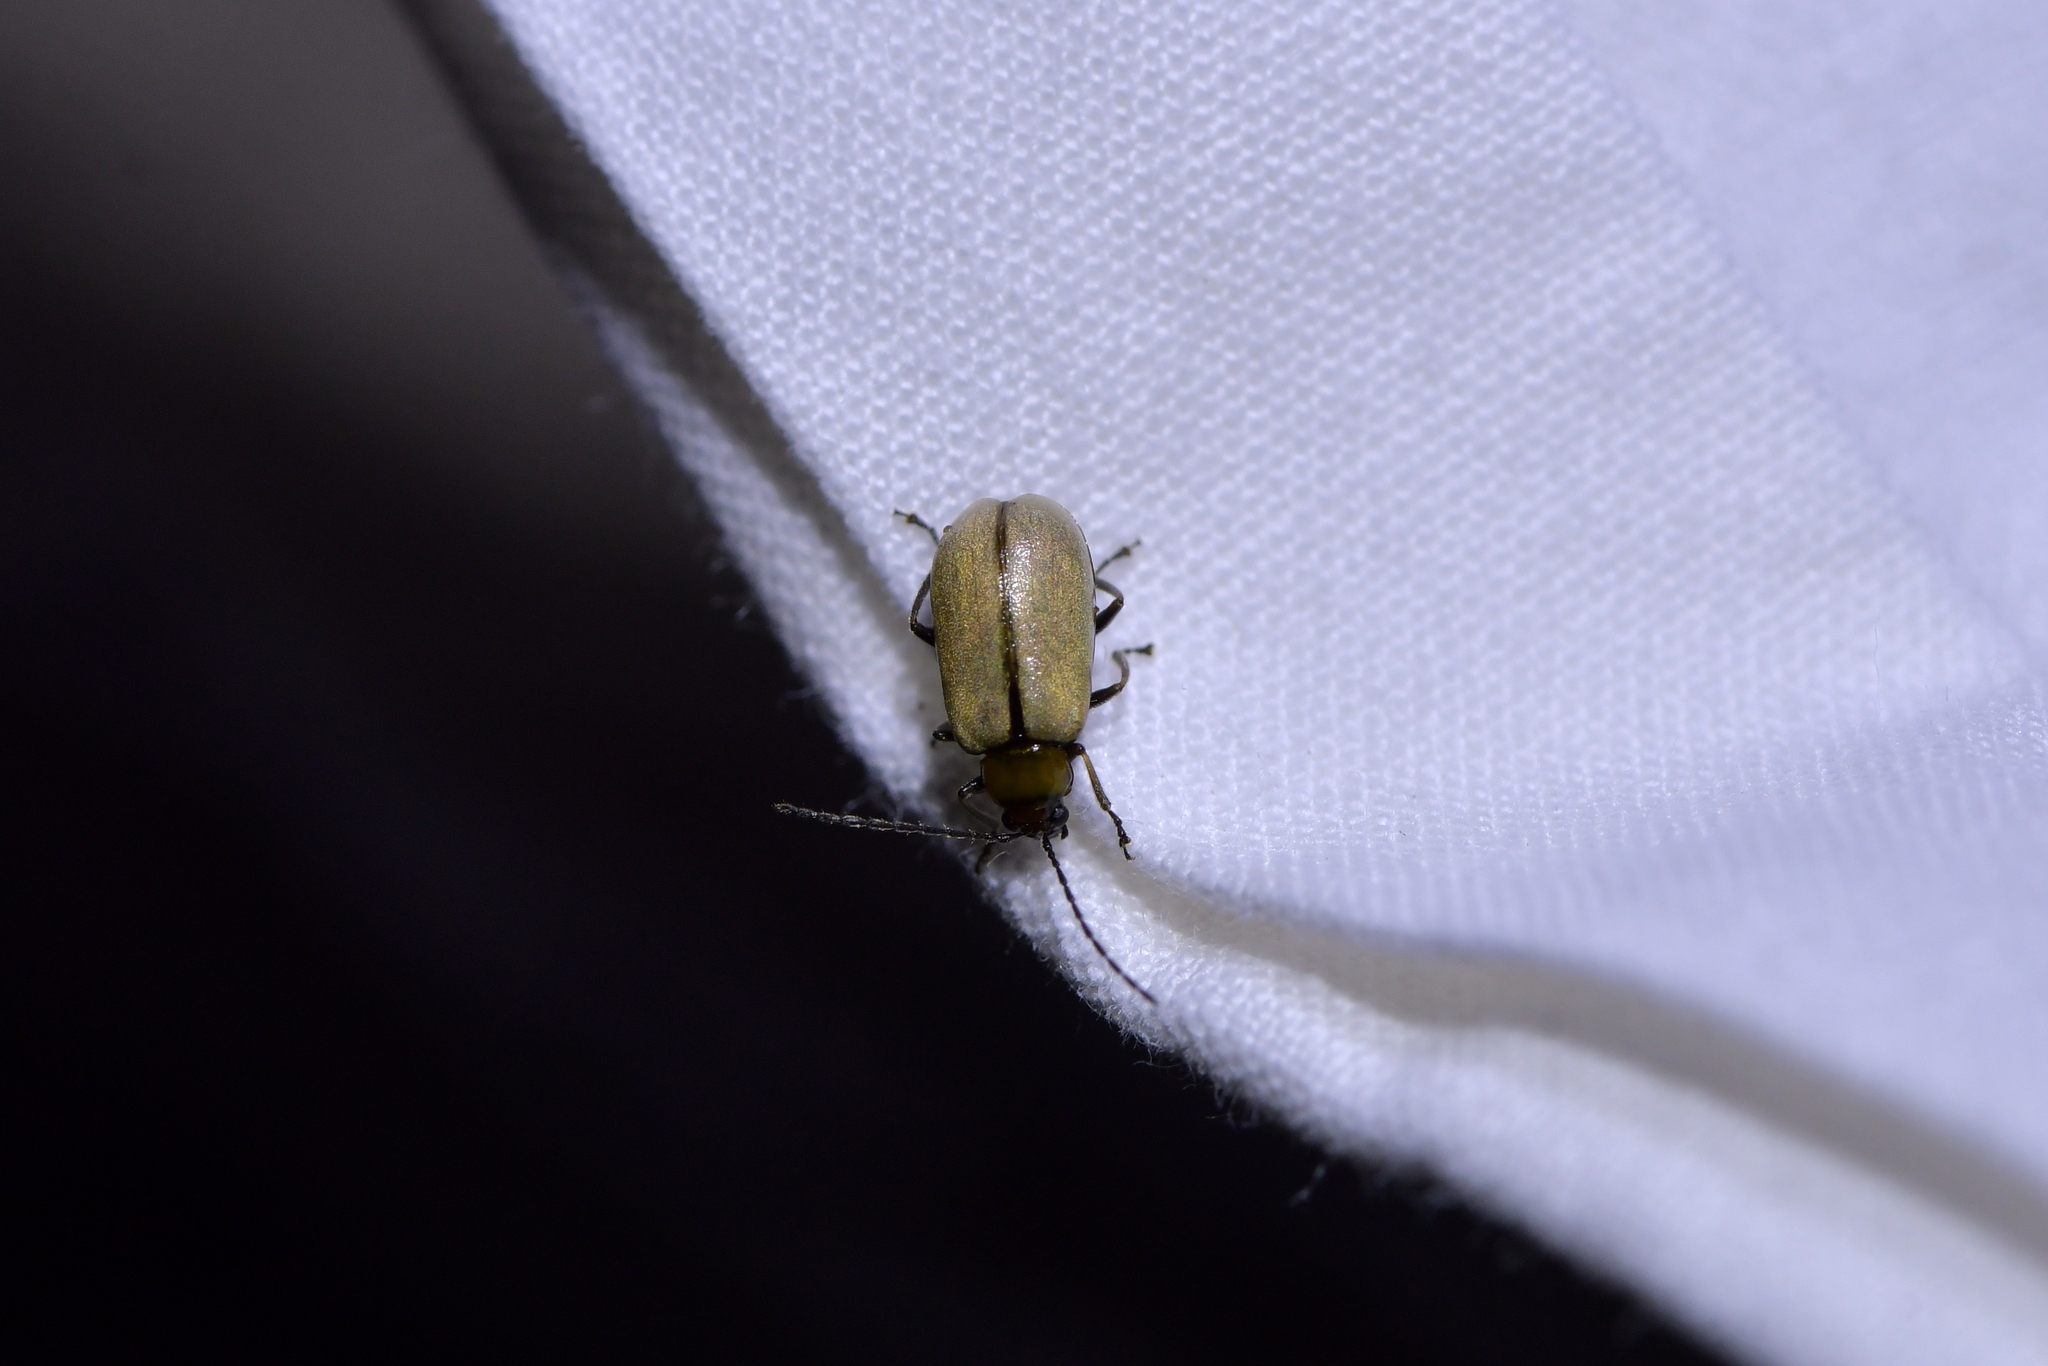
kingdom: Animalia
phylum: Arthropoda
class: Insecta
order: Coleoptera
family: Chrysomelidae
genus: Adoxia
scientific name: Adoxia
